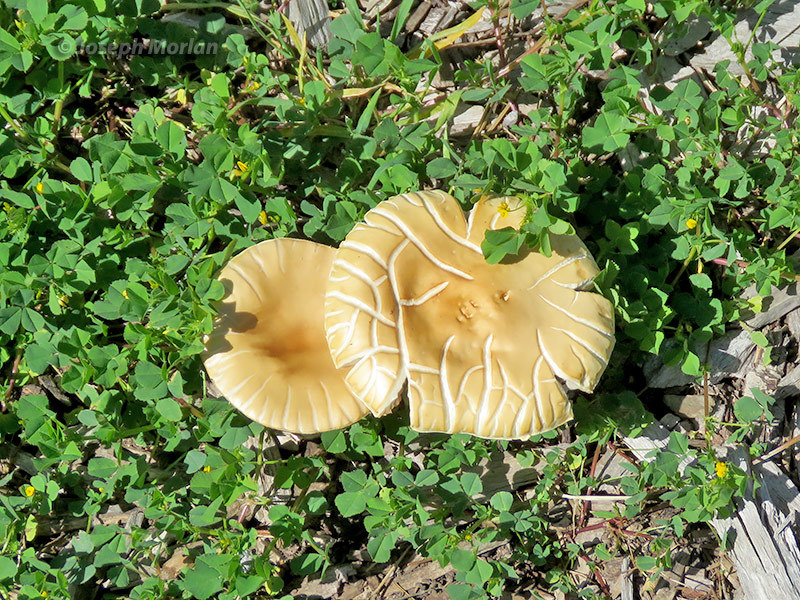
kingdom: Fungi
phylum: Basidiomycota
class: Agaricomycetes
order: Agaricales
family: Strophariaceae
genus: Agrocybe
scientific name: Agrocybe praecox
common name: Spring fieldcap
